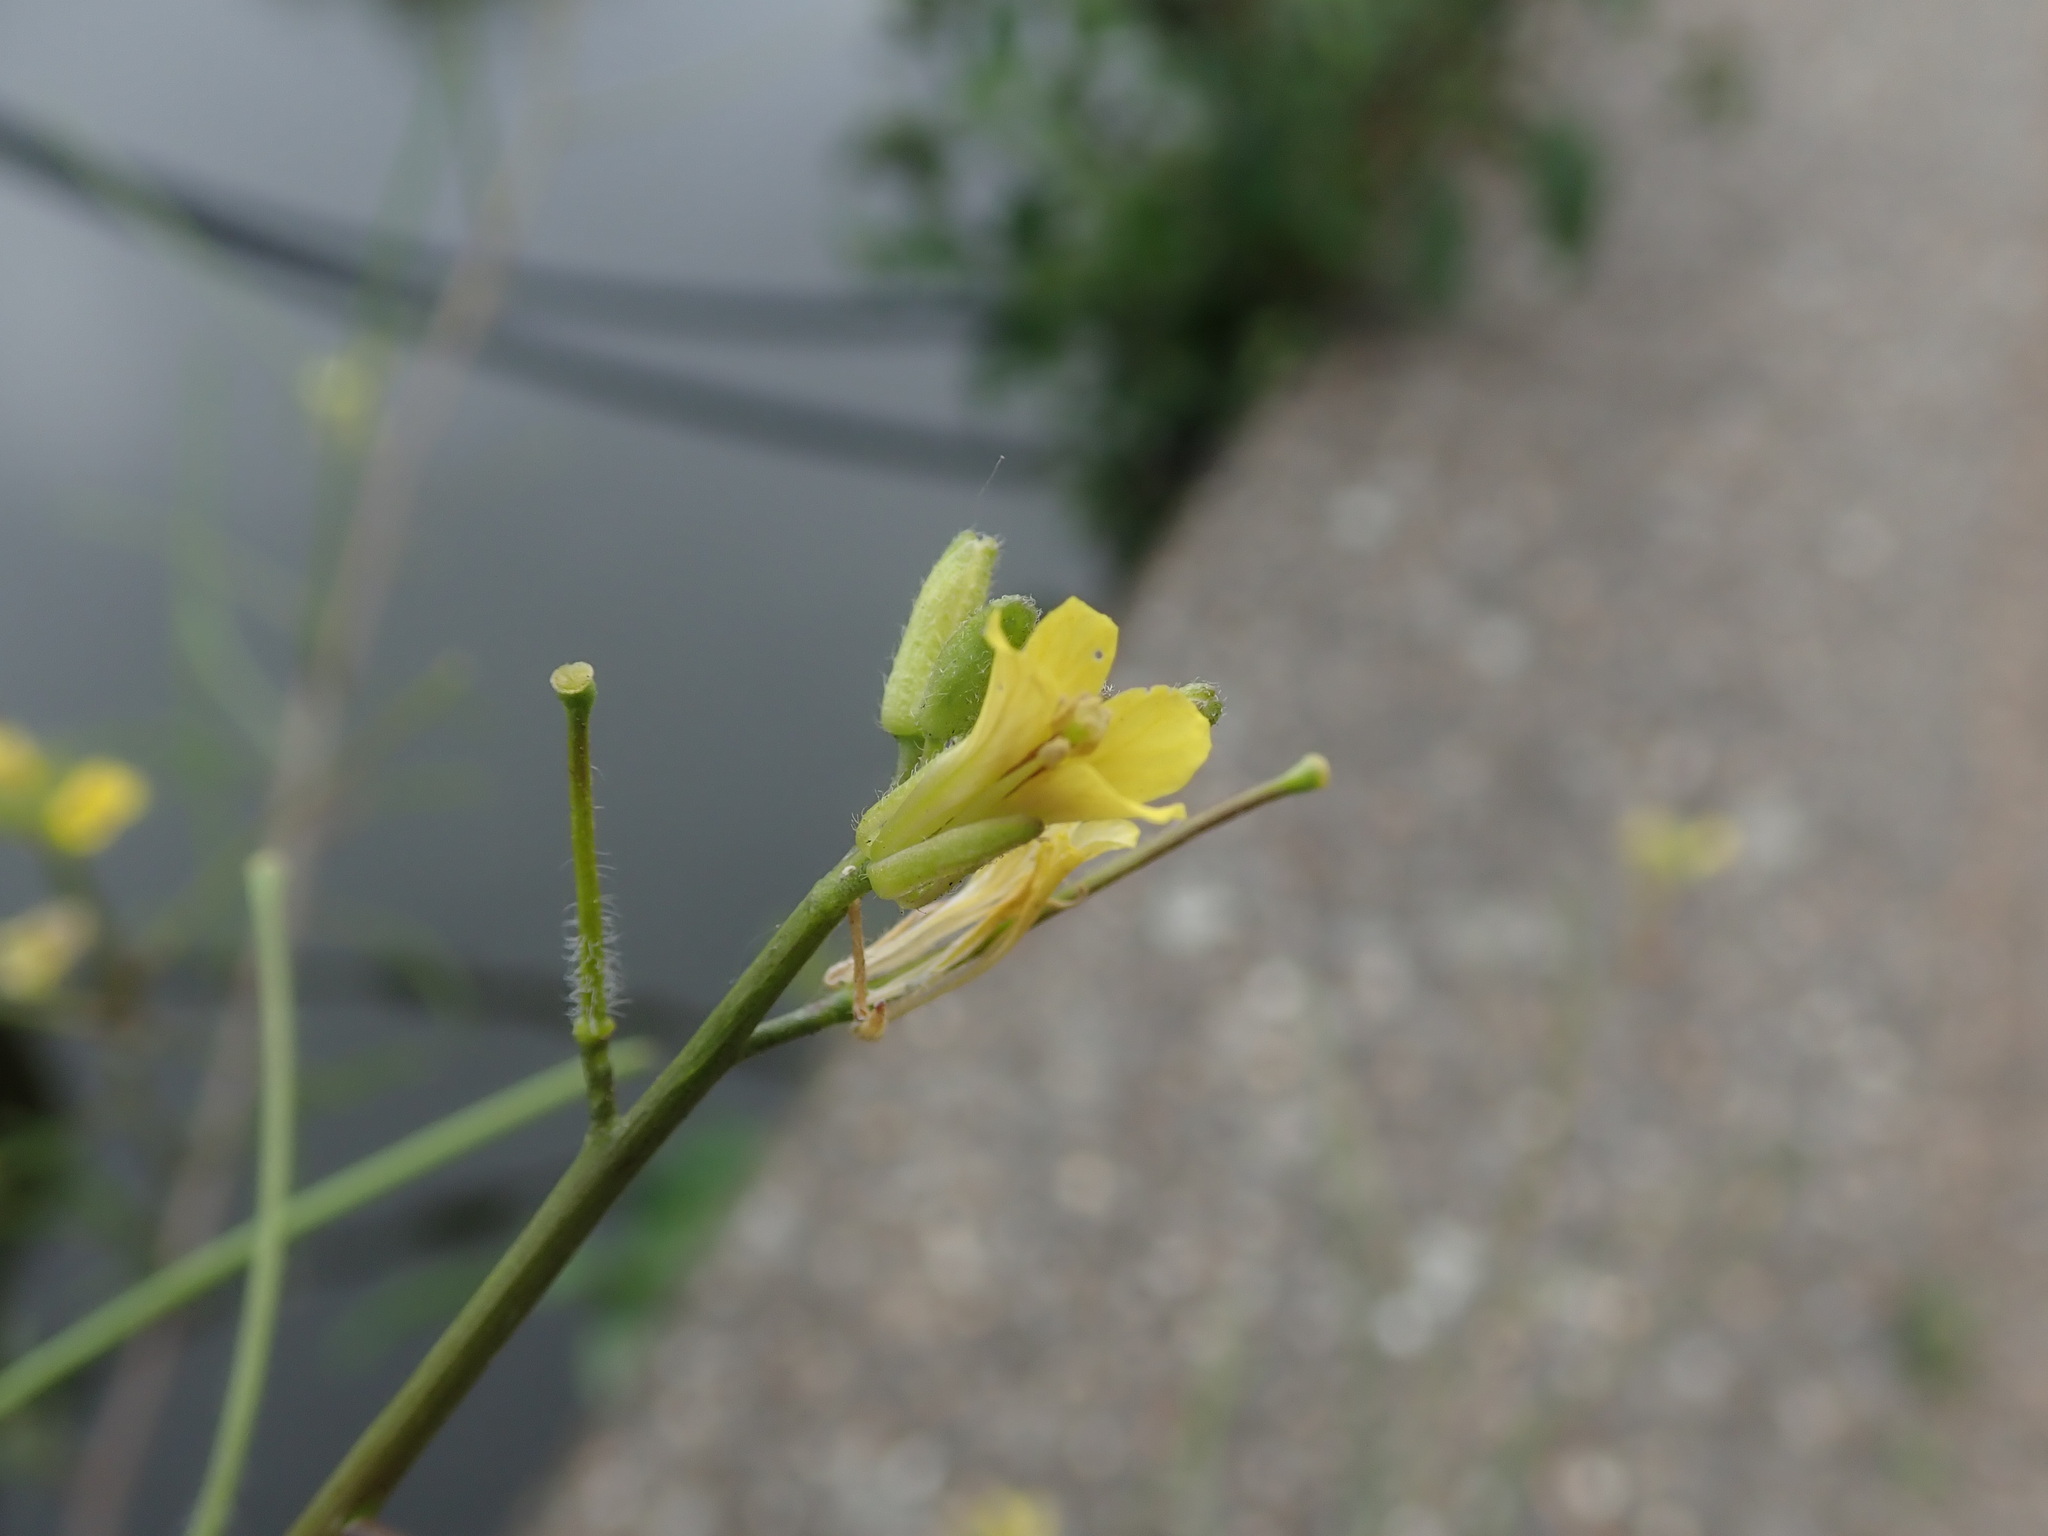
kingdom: Plantae
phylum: Tracheophyta
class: Magnoliopsida
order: Brassicales
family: Brassicaceae
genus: Sisymbrium
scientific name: Sisymbrium orientale
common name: Eastern rocket
